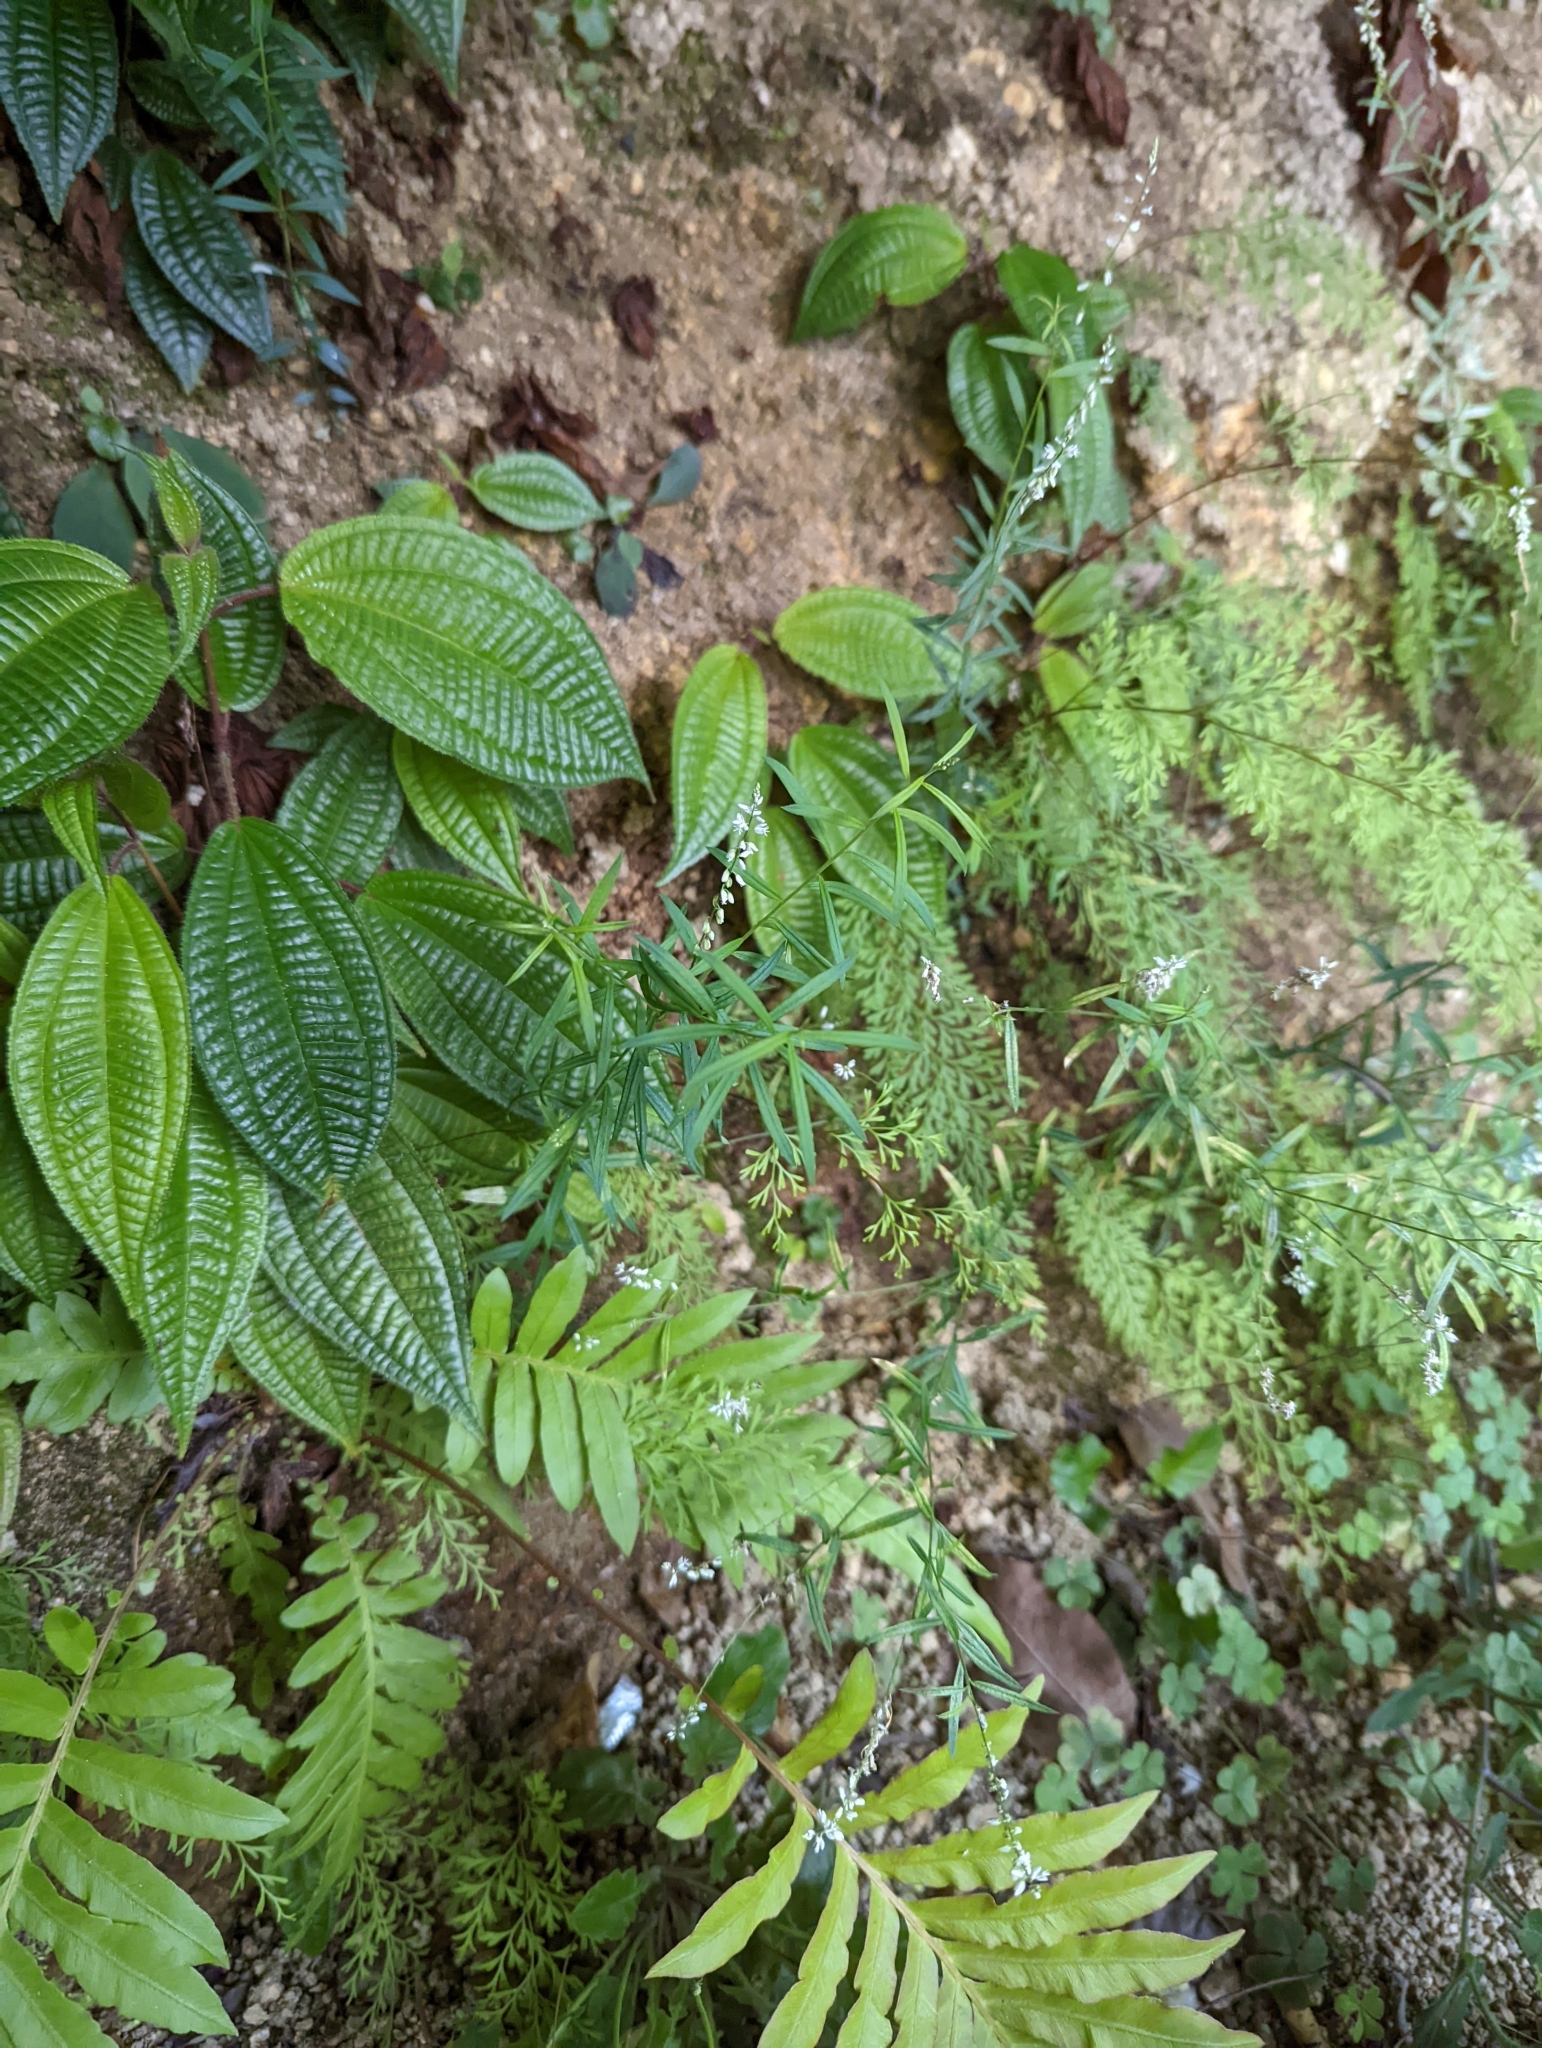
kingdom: Plantae
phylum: Tracheophyta
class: Magnoliopsida
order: Fabales
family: Polygalaceae
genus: Polygala
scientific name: Polygala paniculata
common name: Orosne
